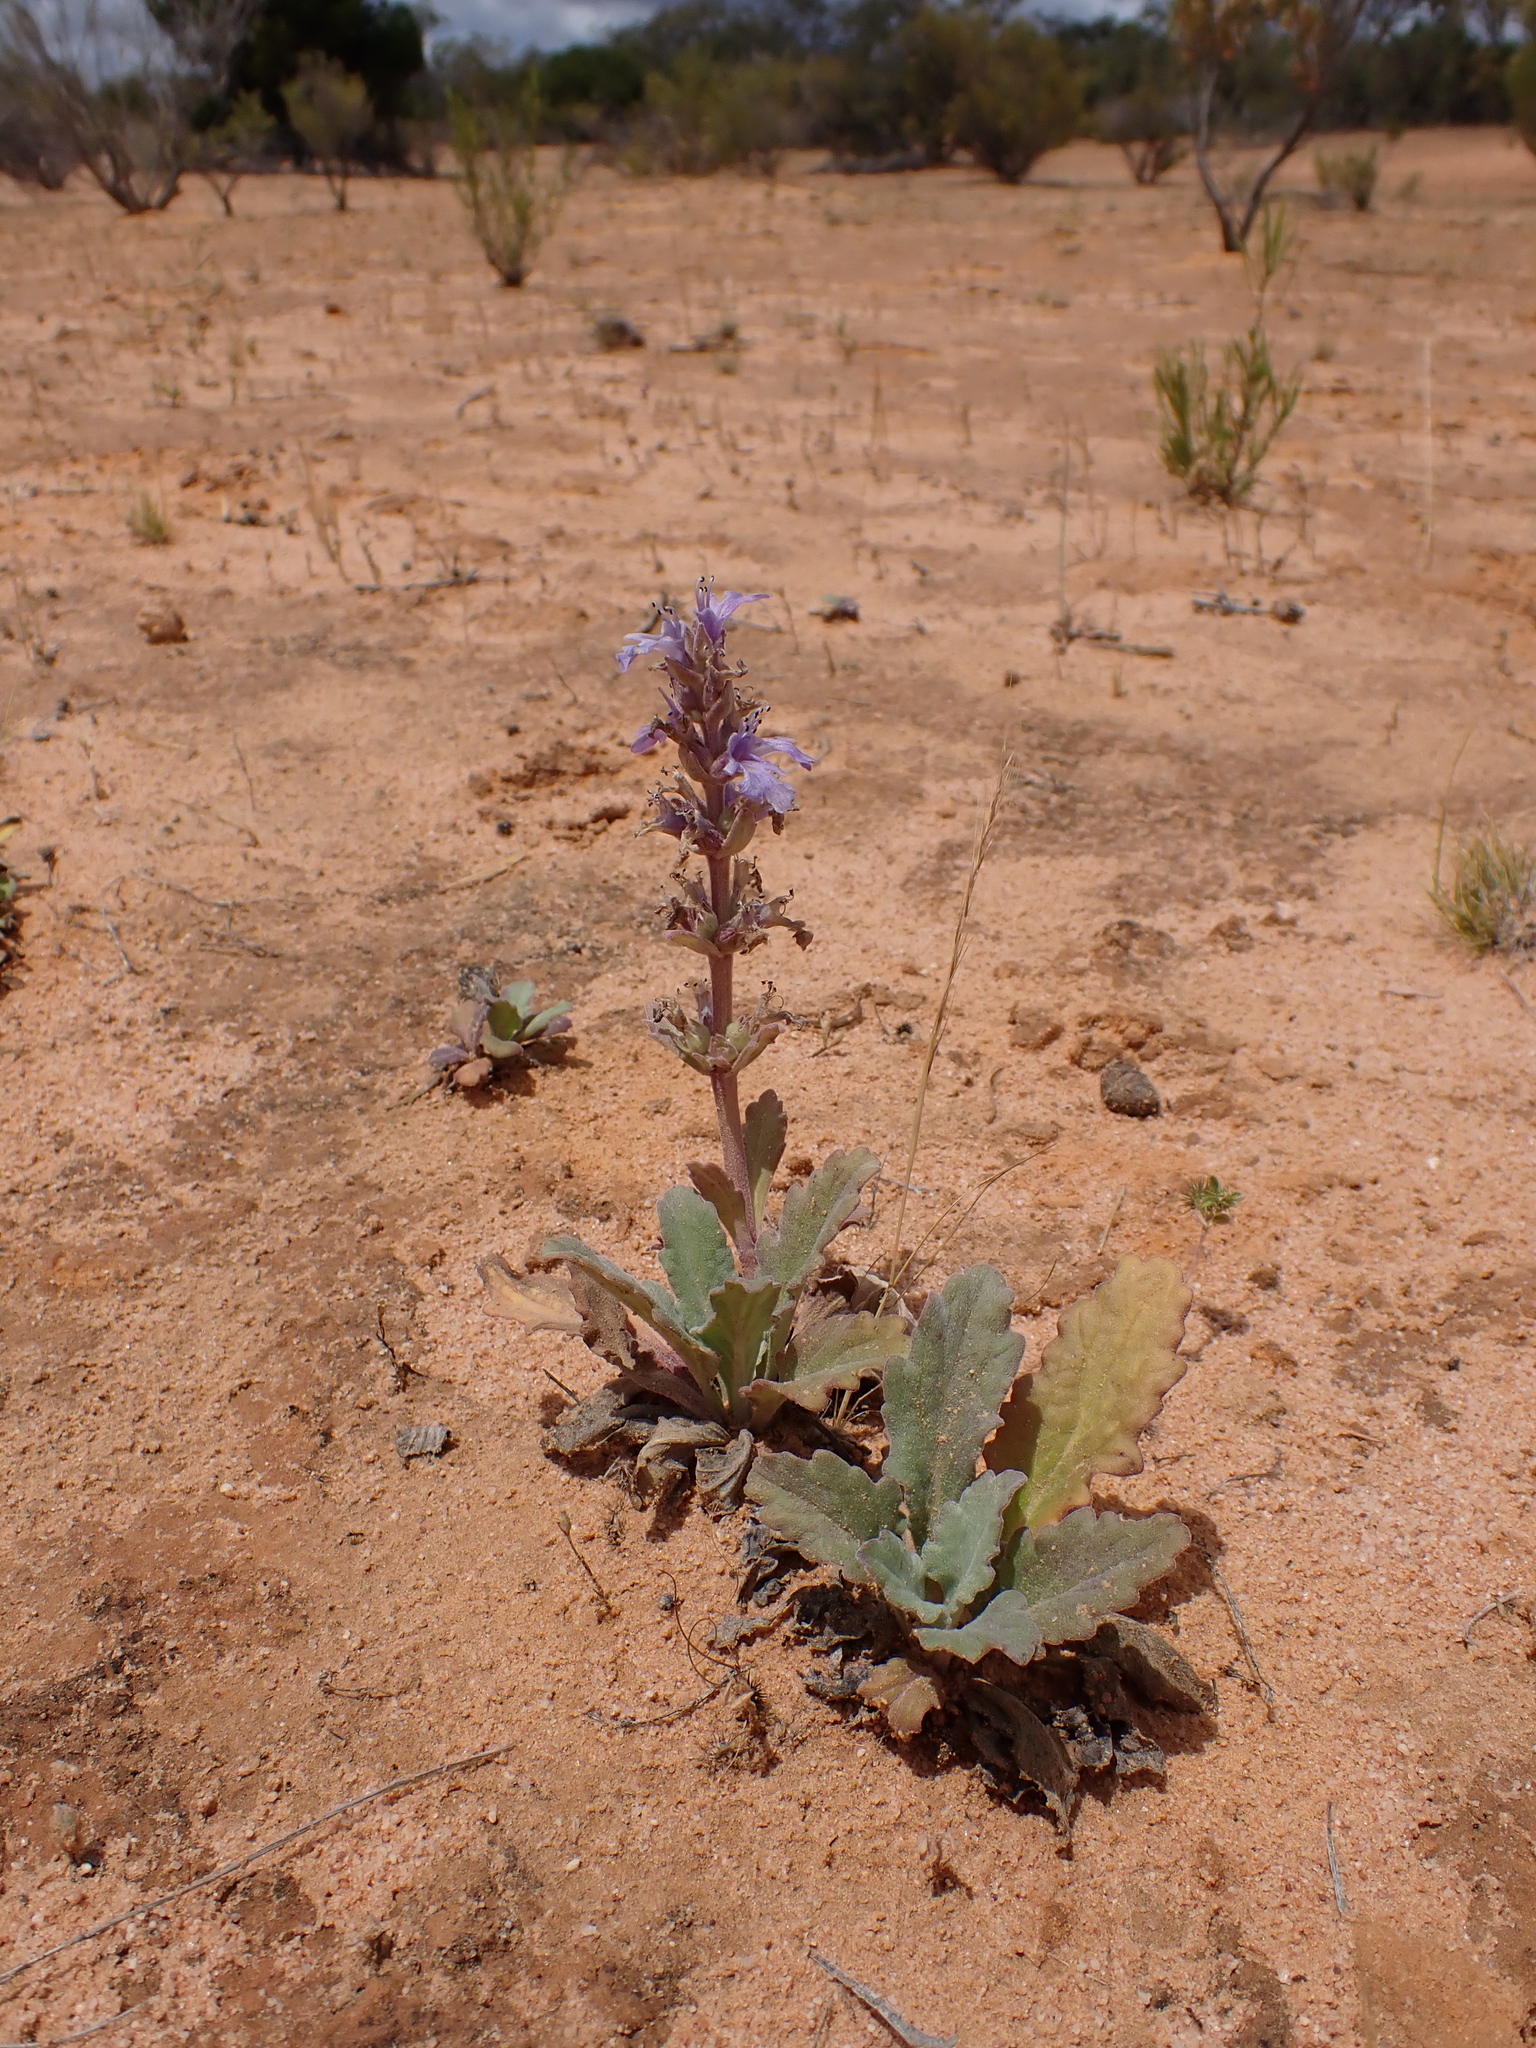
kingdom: Plantae
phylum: Tracheophyta
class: Magnoliopsida
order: Lamiales
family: Lamiaceae
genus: Ajuga
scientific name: Ajuga australis
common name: Australian bugle
